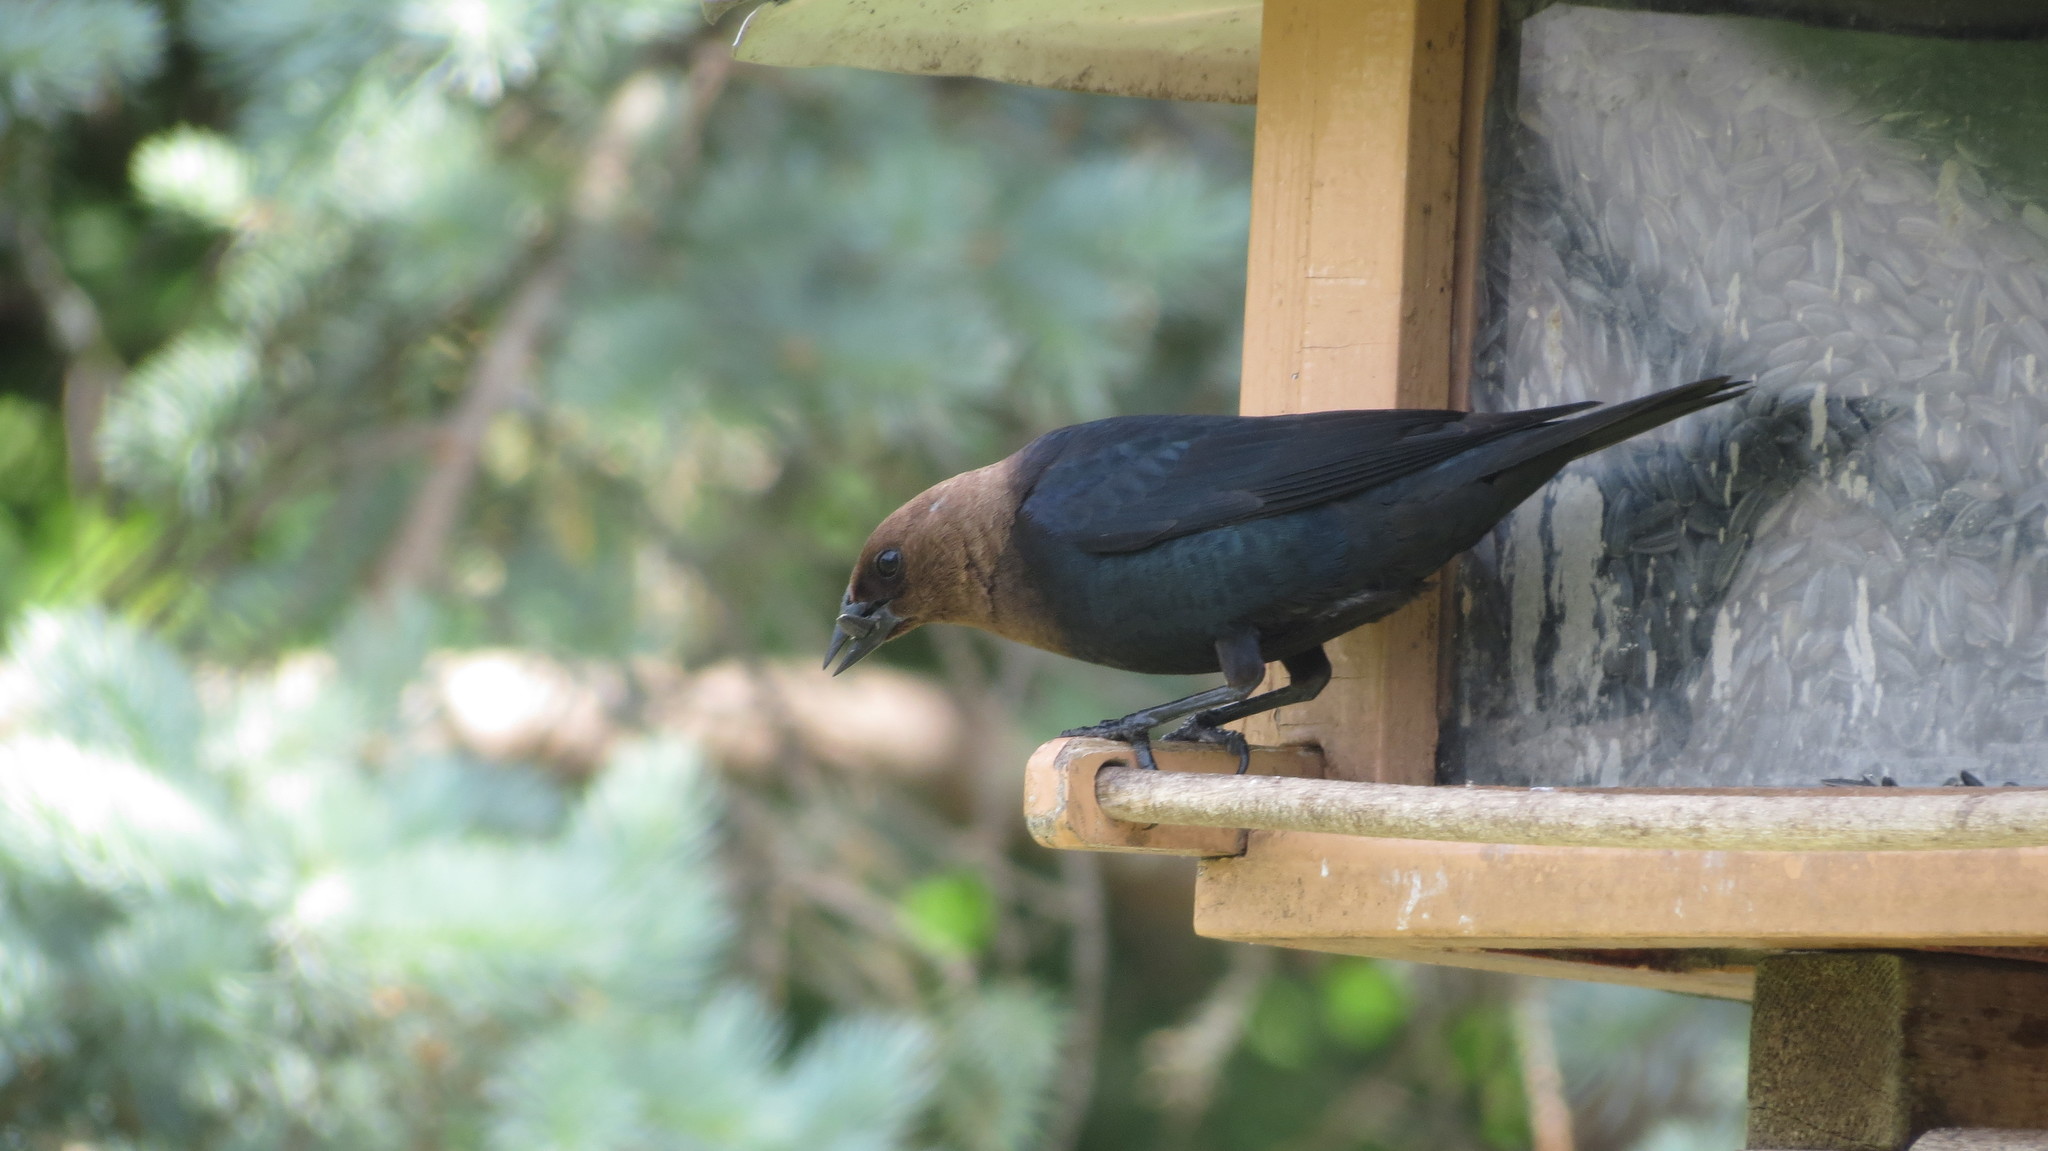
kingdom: Animalia
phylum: Chordata
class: Aves
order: Passeriformes
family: Icteridae
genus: Molothrus
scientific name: Molothrus ater
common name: Brown-headed cowbird
